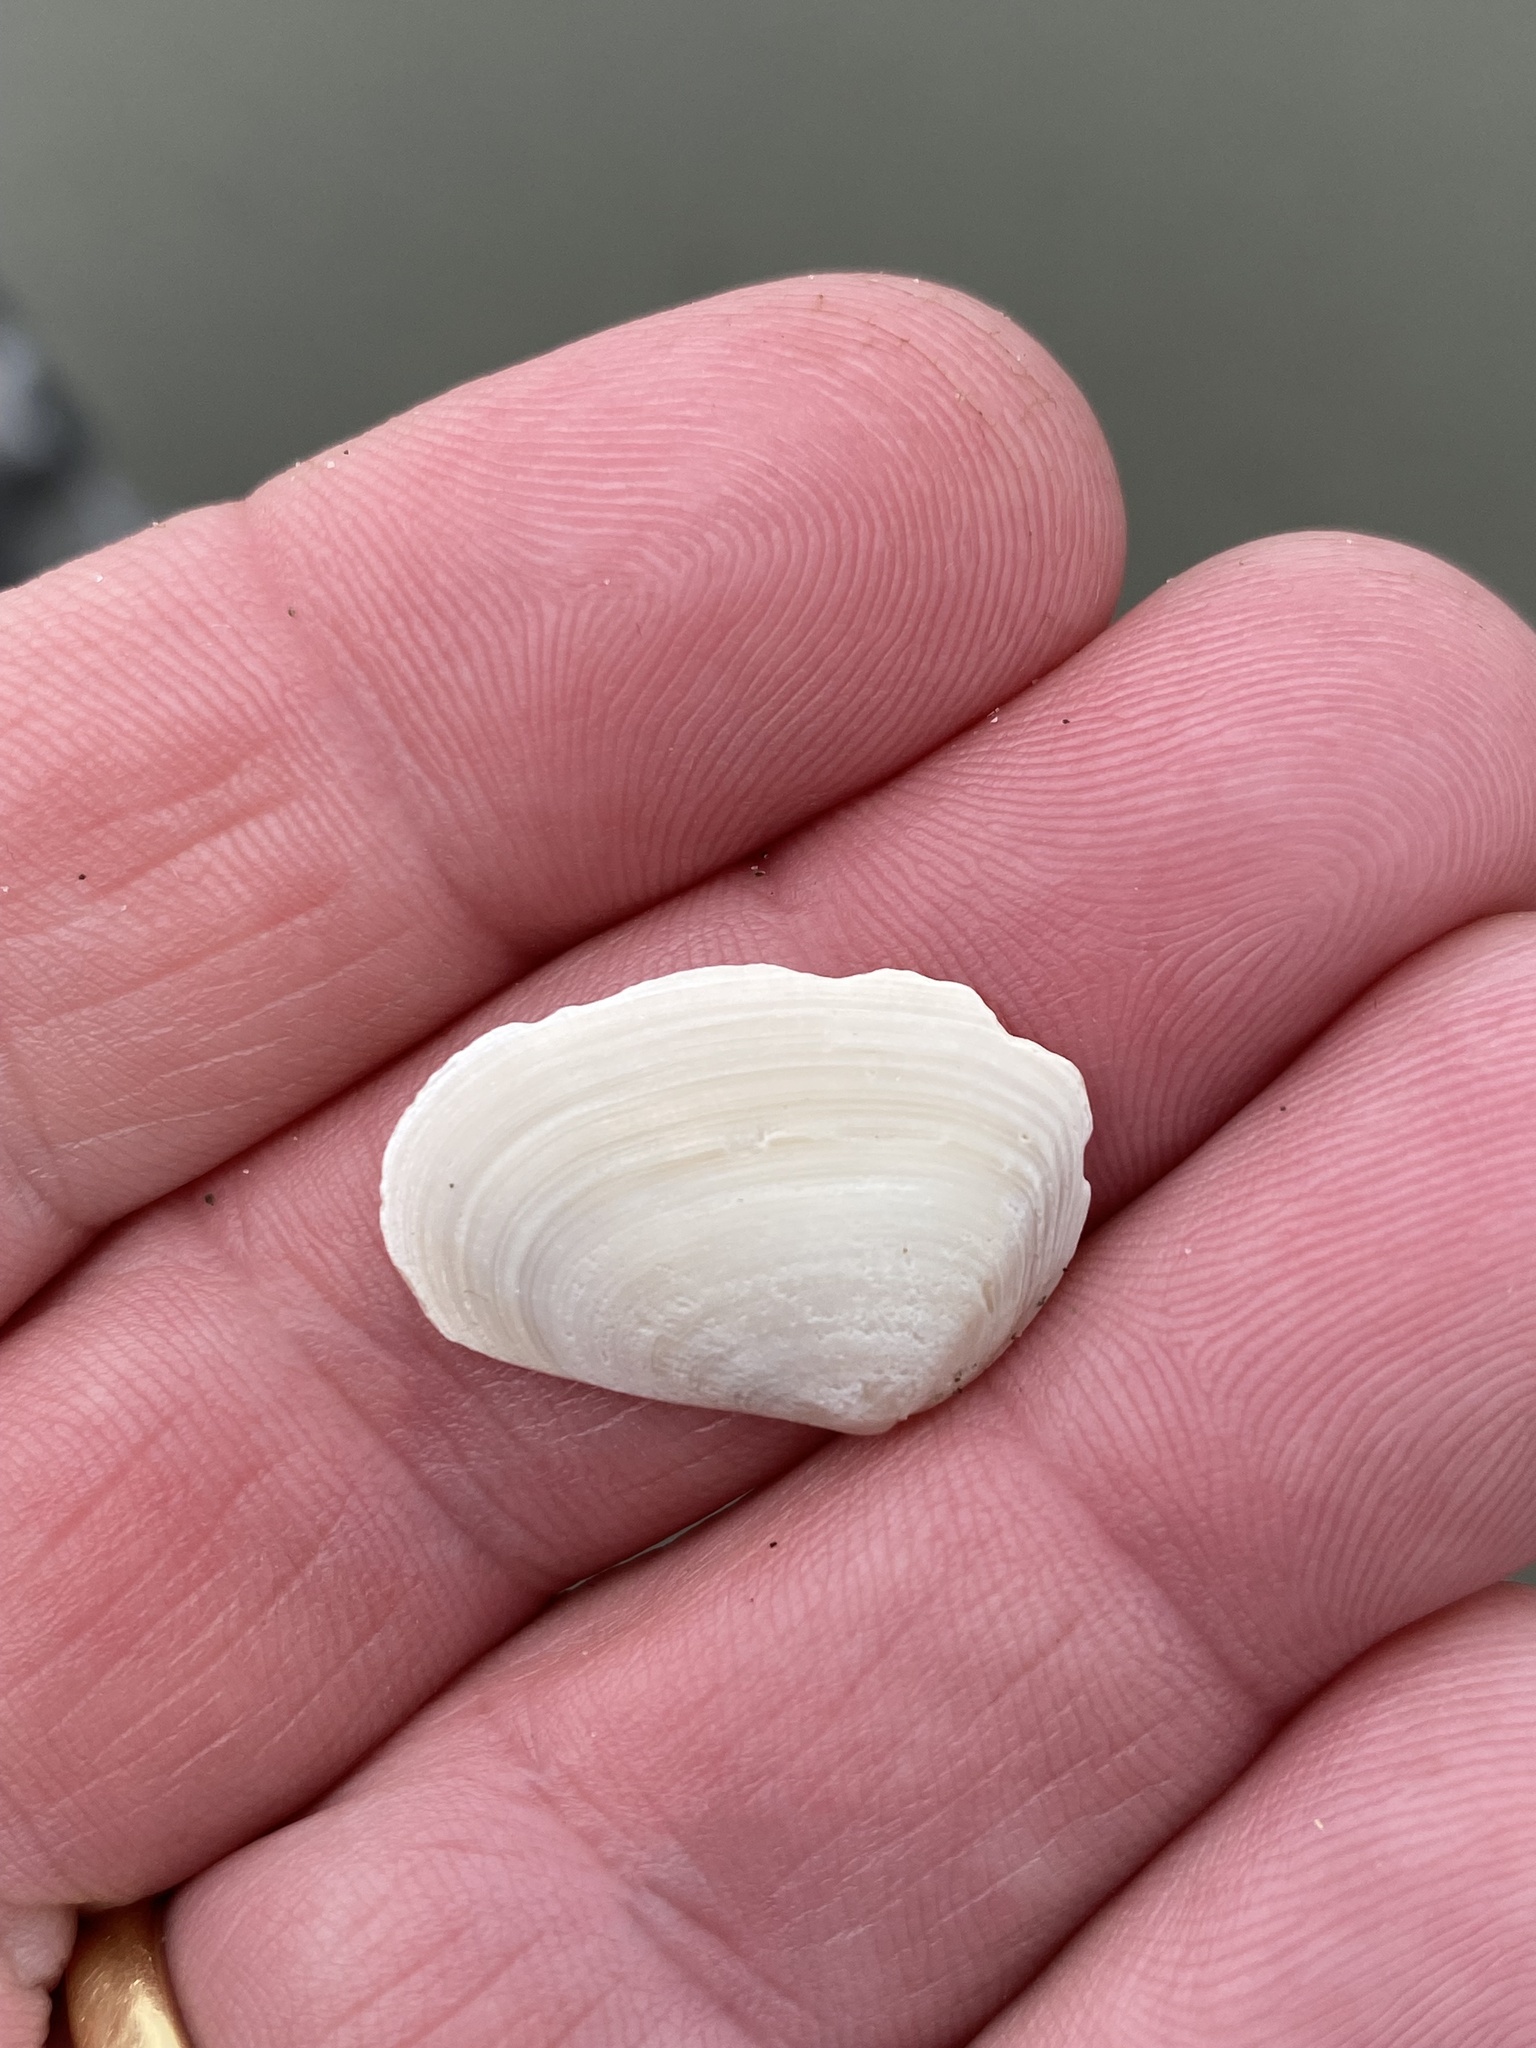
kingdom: Animalia
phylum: Mollusca
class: Bivalvia
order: Venerida
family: Mesodesmatidae
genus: Paphies
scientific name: Paphies donacina
